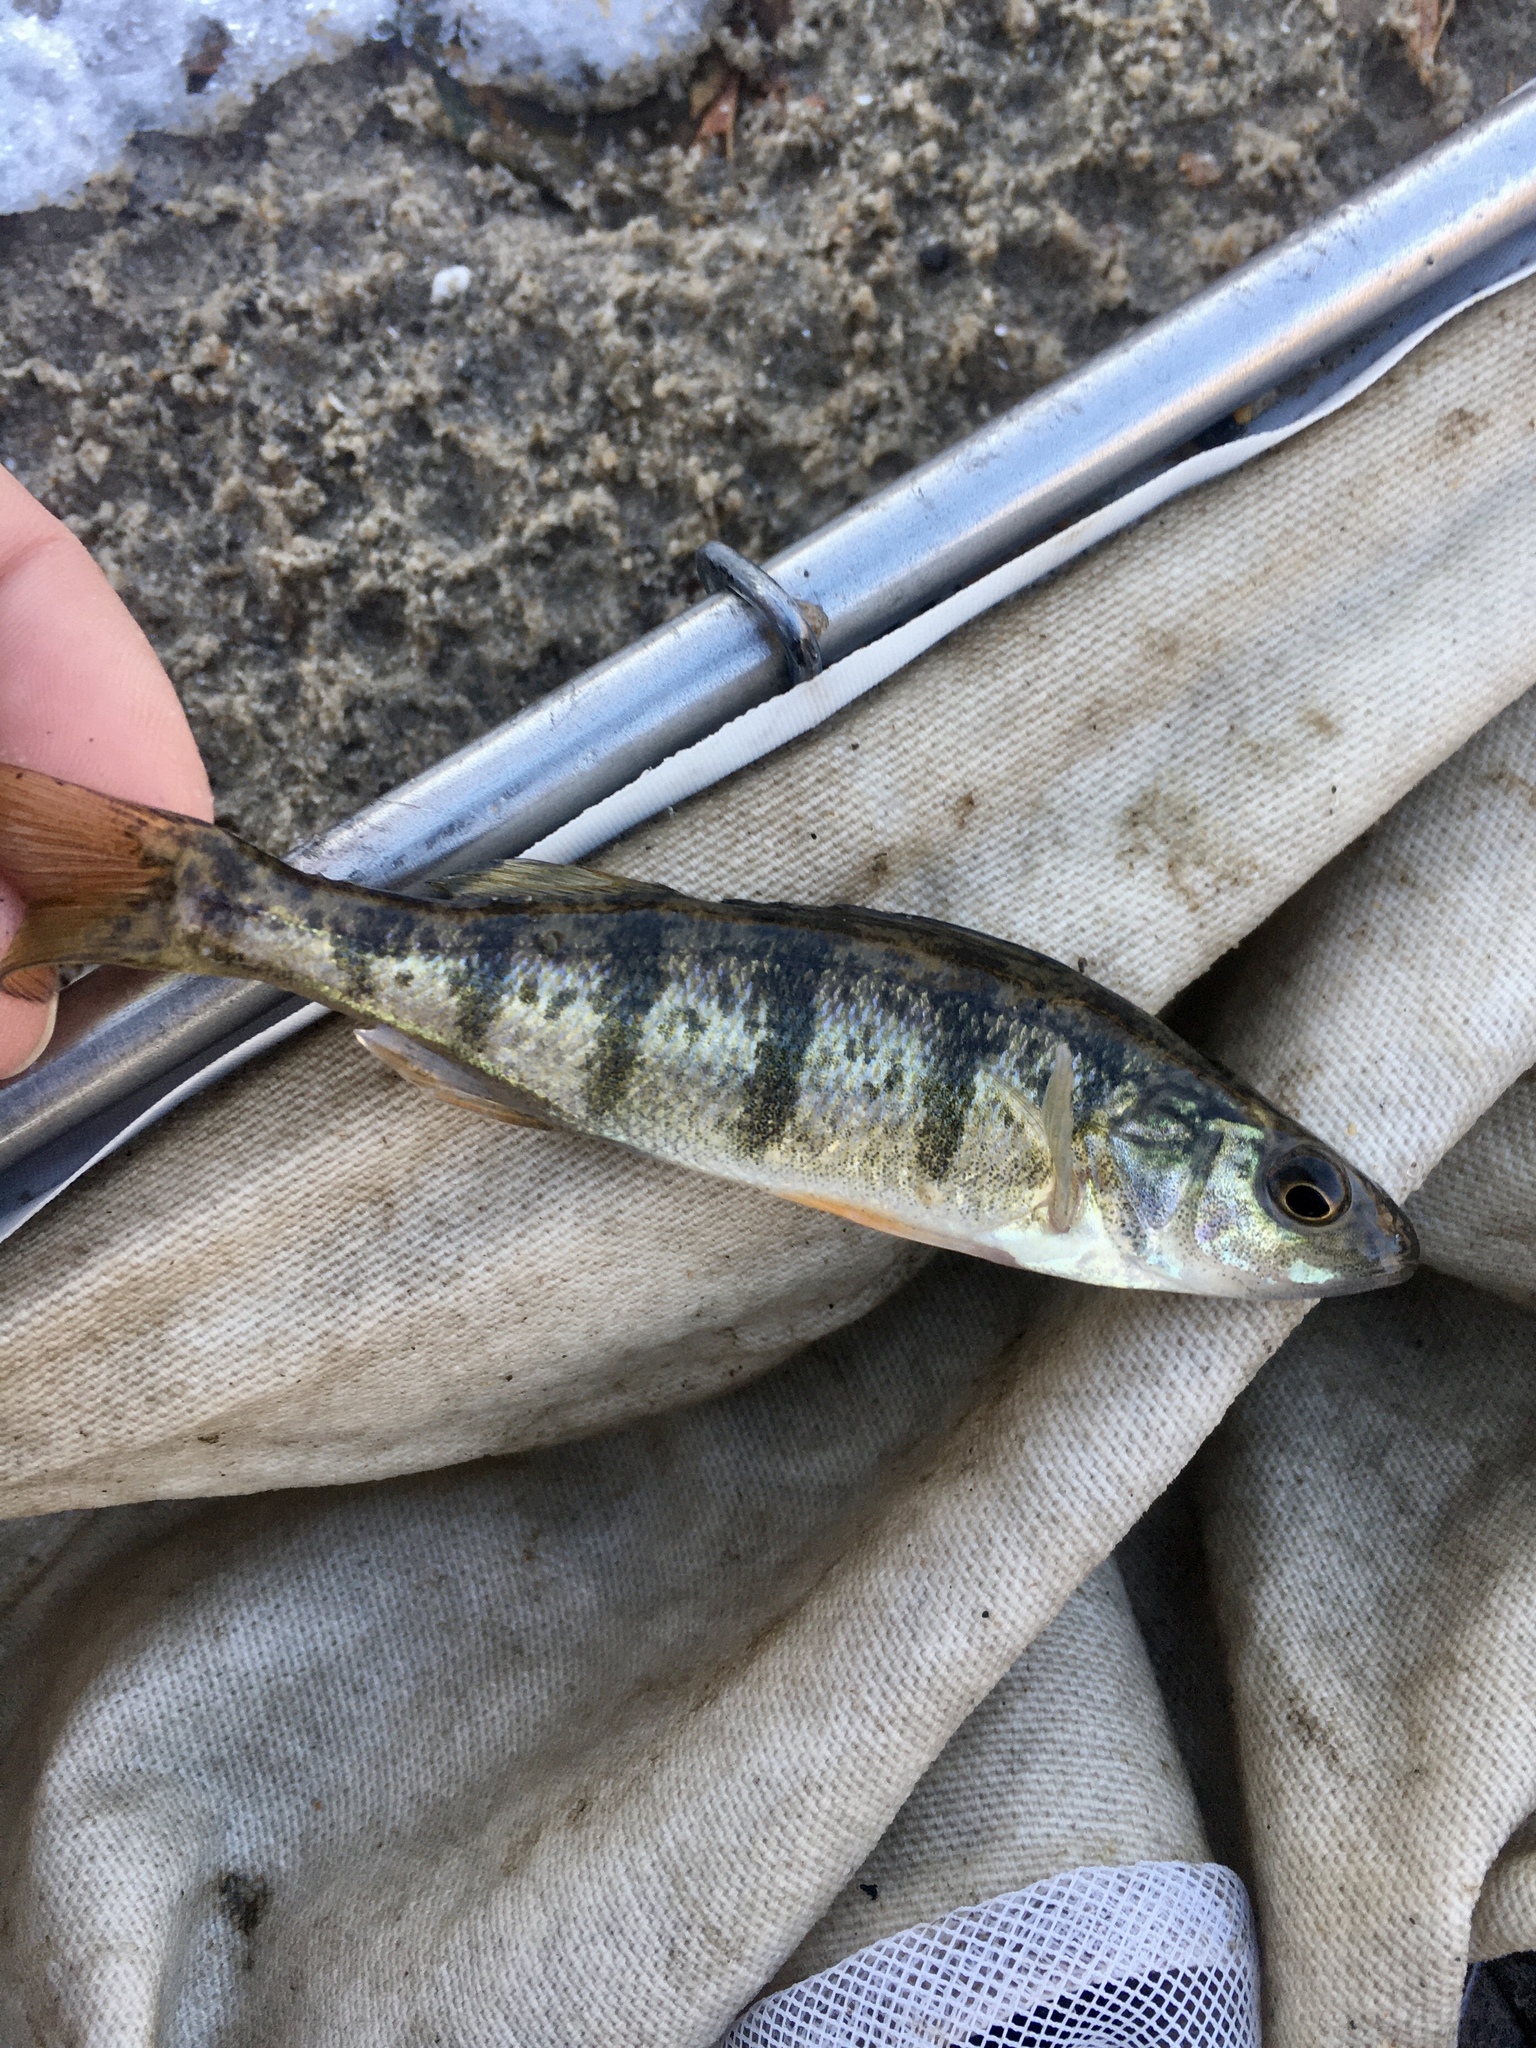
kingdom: Animalia
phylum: Chordata
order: Perciformes
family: Percidae
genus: Perca
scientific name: Perca flavescens
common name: Yellow perch
